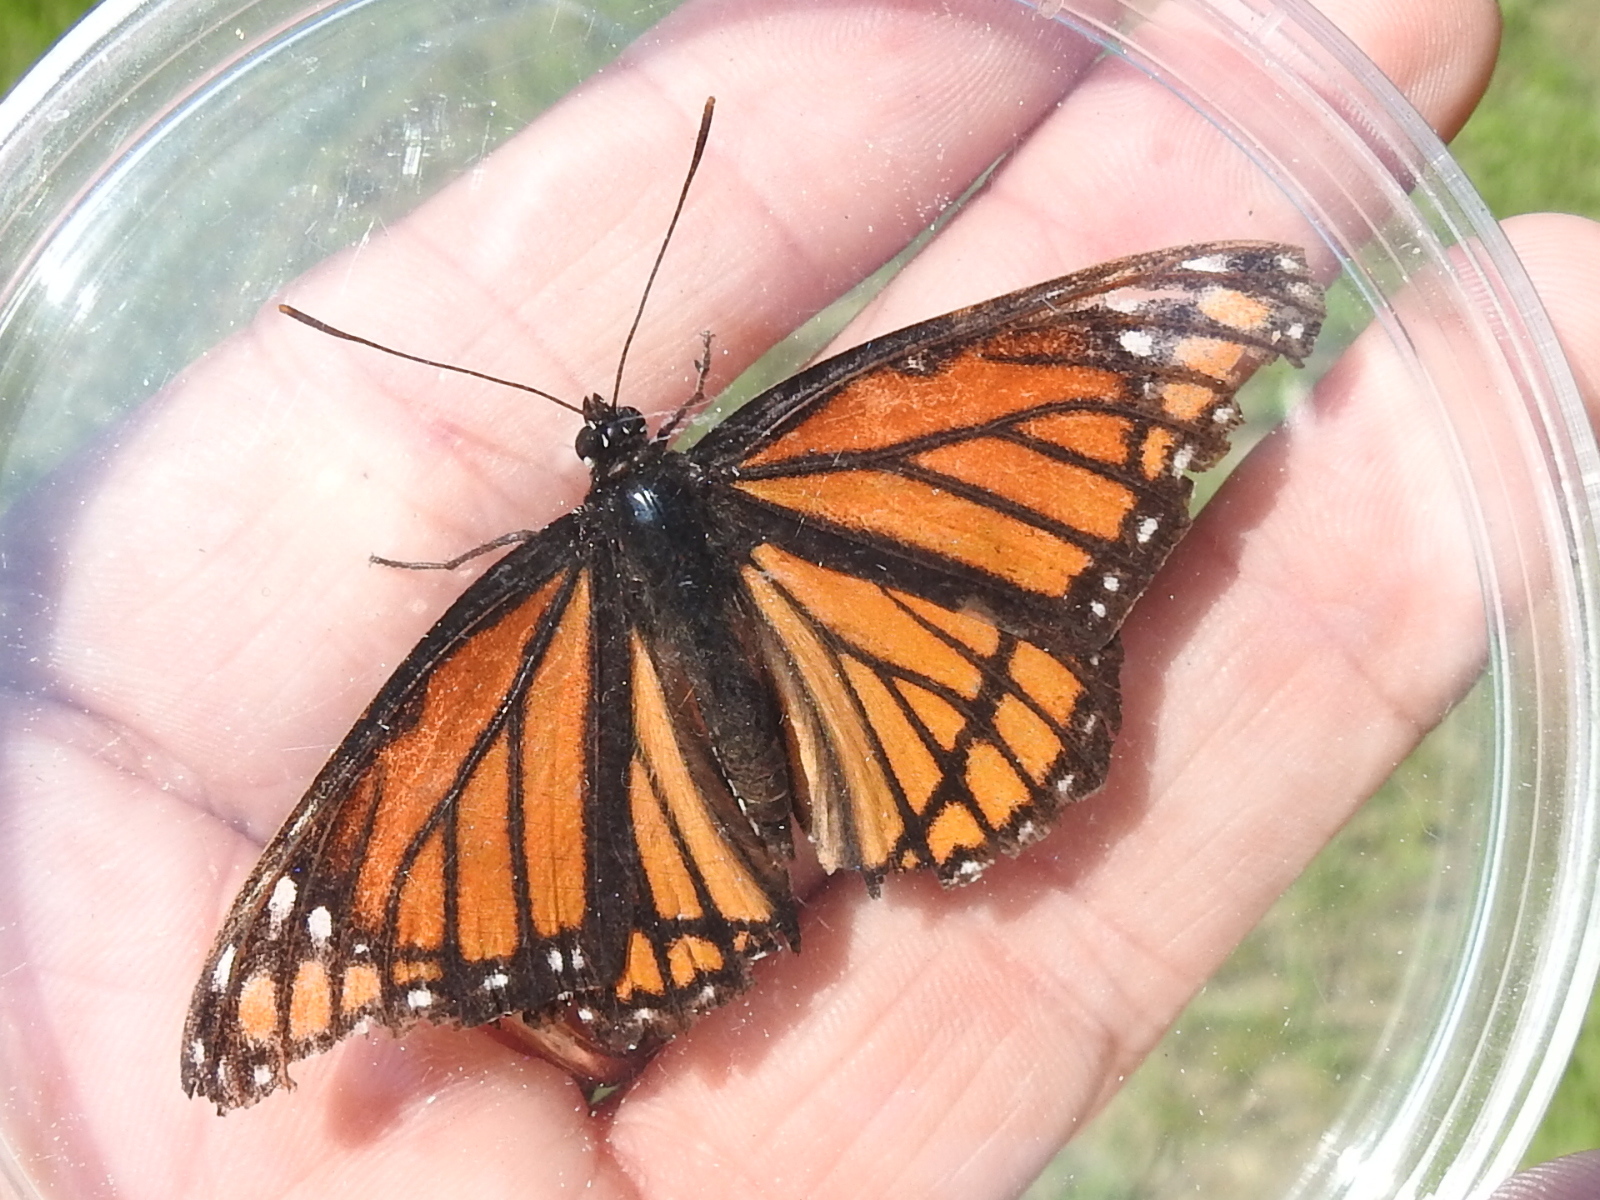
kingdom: Animalia
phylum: Arthropoda
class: Insecta
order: Lepidoptera
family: Nymphalidae
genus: Limenitis
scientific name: Limenitis archippus
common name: Viceroy
